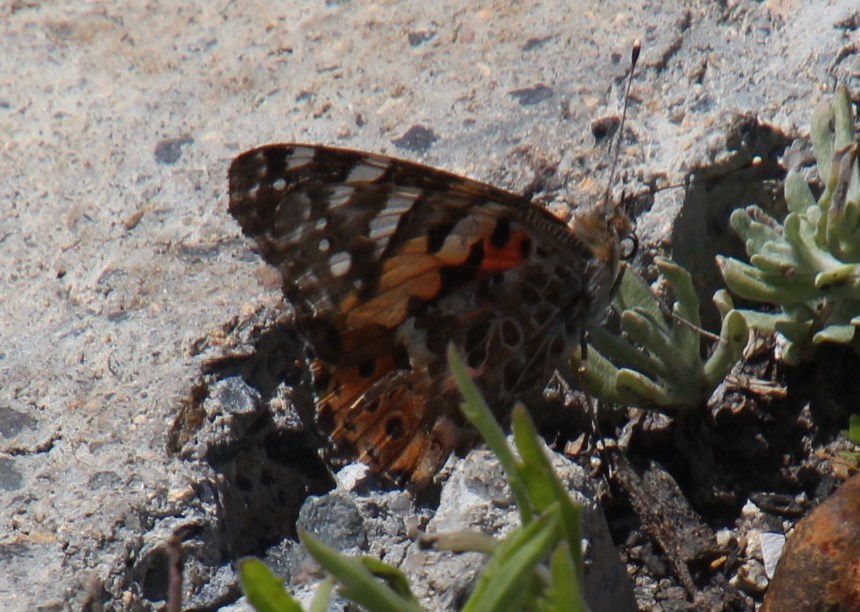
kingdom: Animalia
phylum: Arthropoda
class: Insecta
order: Lepidoptera
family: Nymphalidae
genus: Vanessa
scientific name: Vanessa cardui
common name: Painted lady
